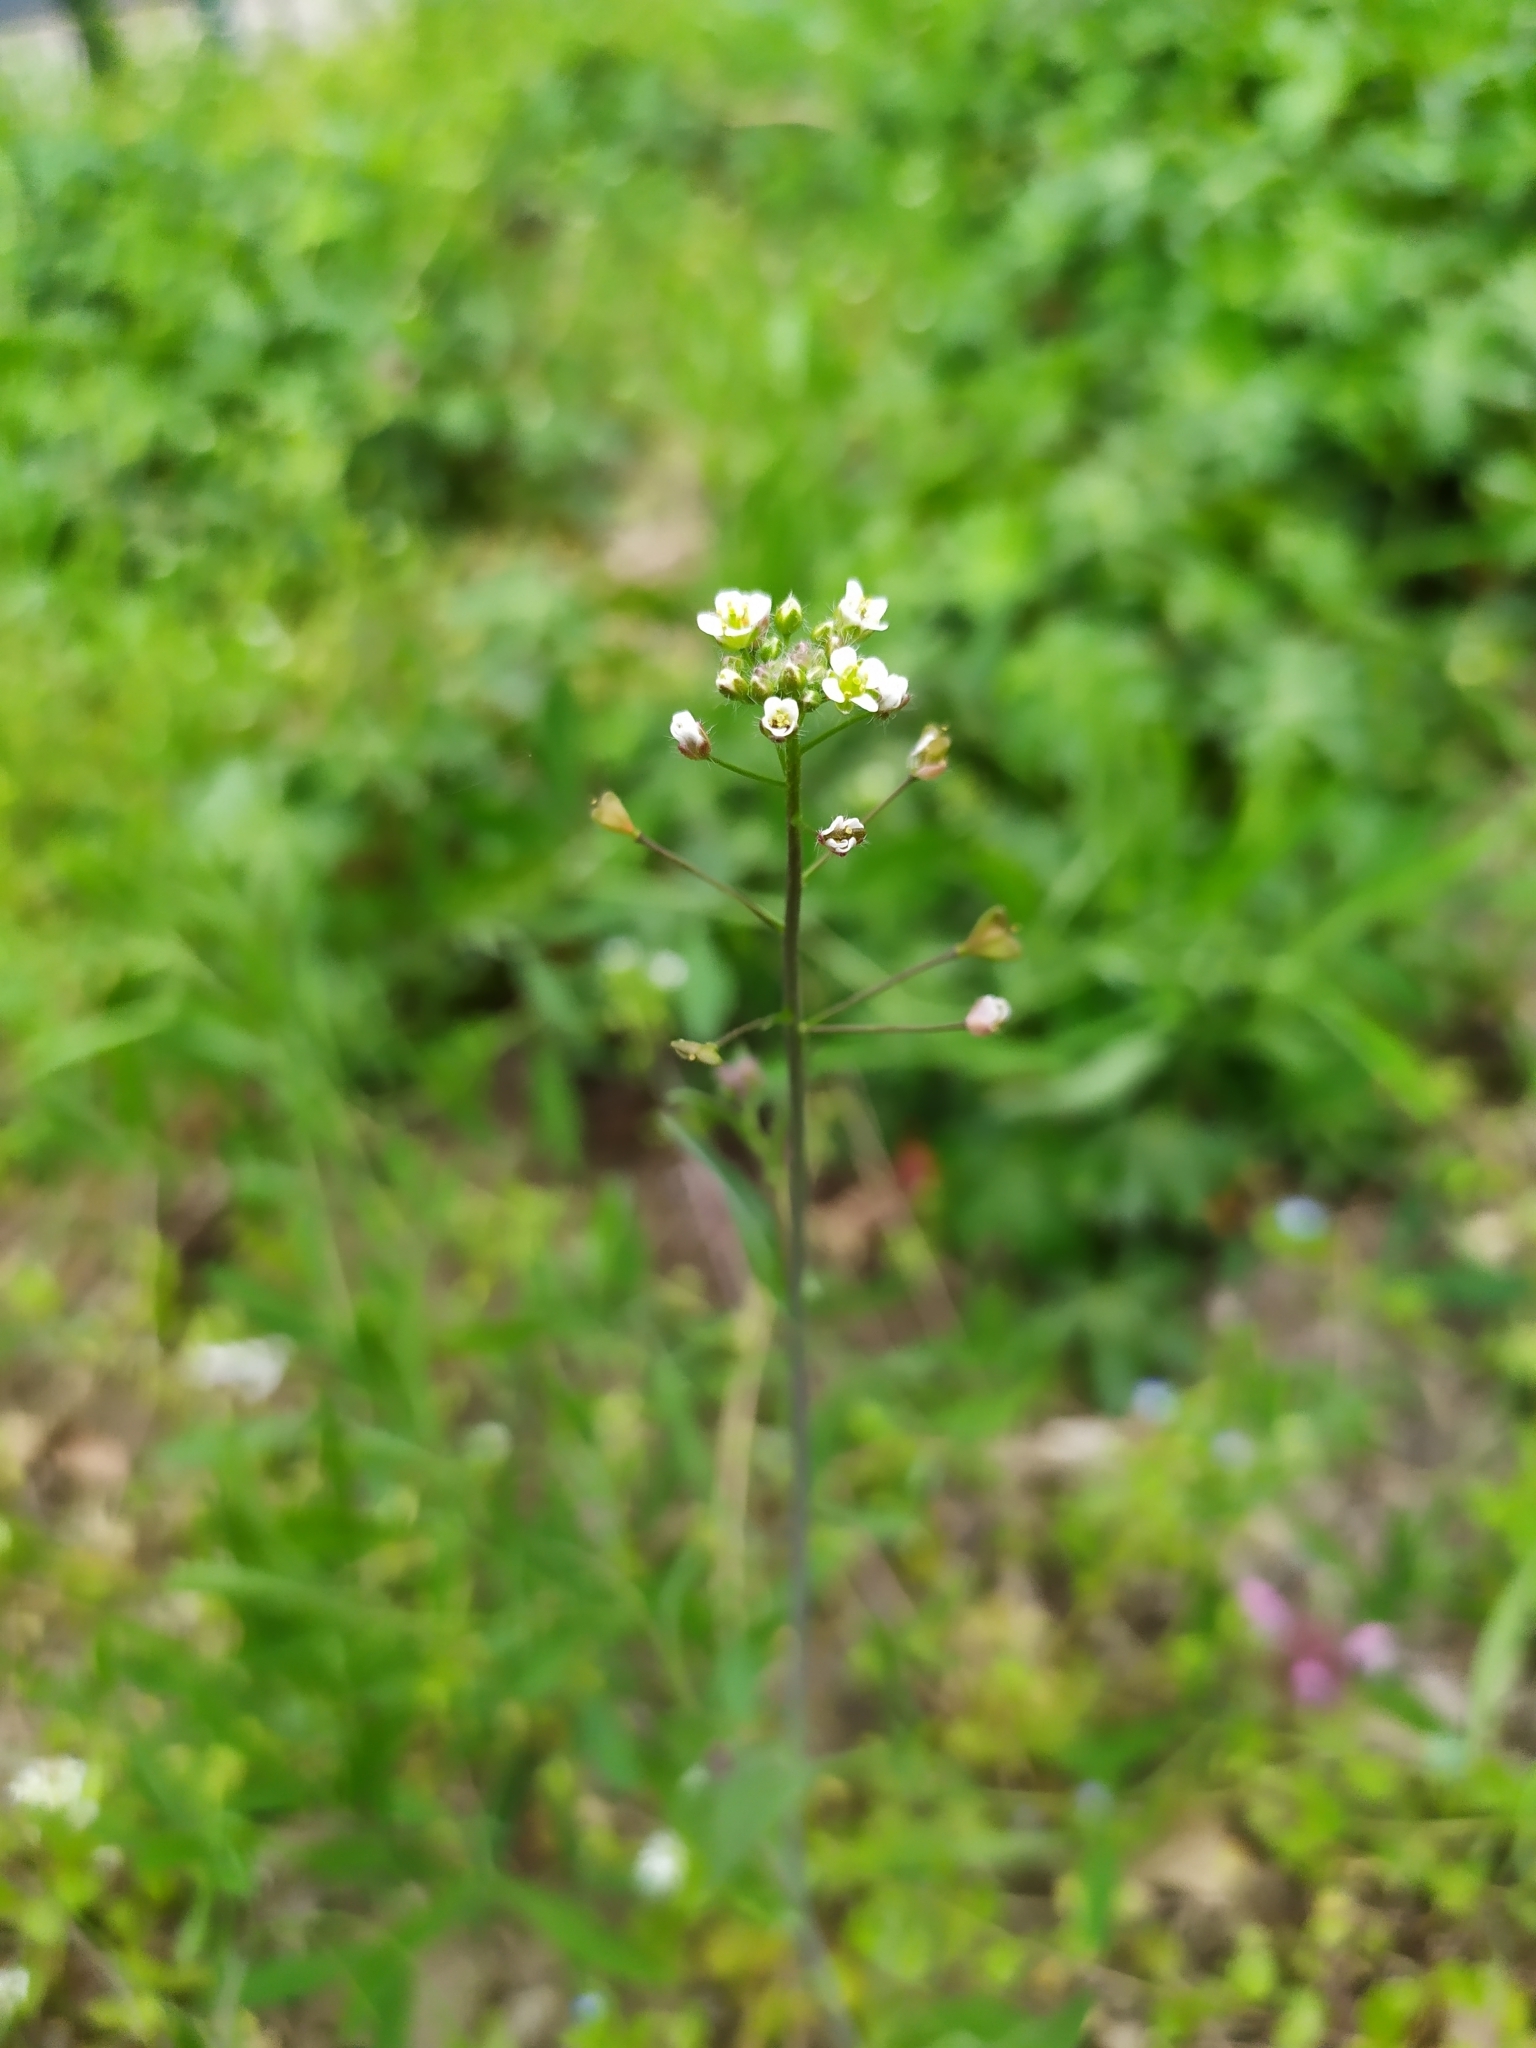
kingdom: Plantae
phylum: Tracheophyta
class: Magnoliopsida
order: Brassicales
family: Brassicaceae
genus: Capsella
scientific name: Capsella bursa-pastoris
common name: Shepherd's purse
